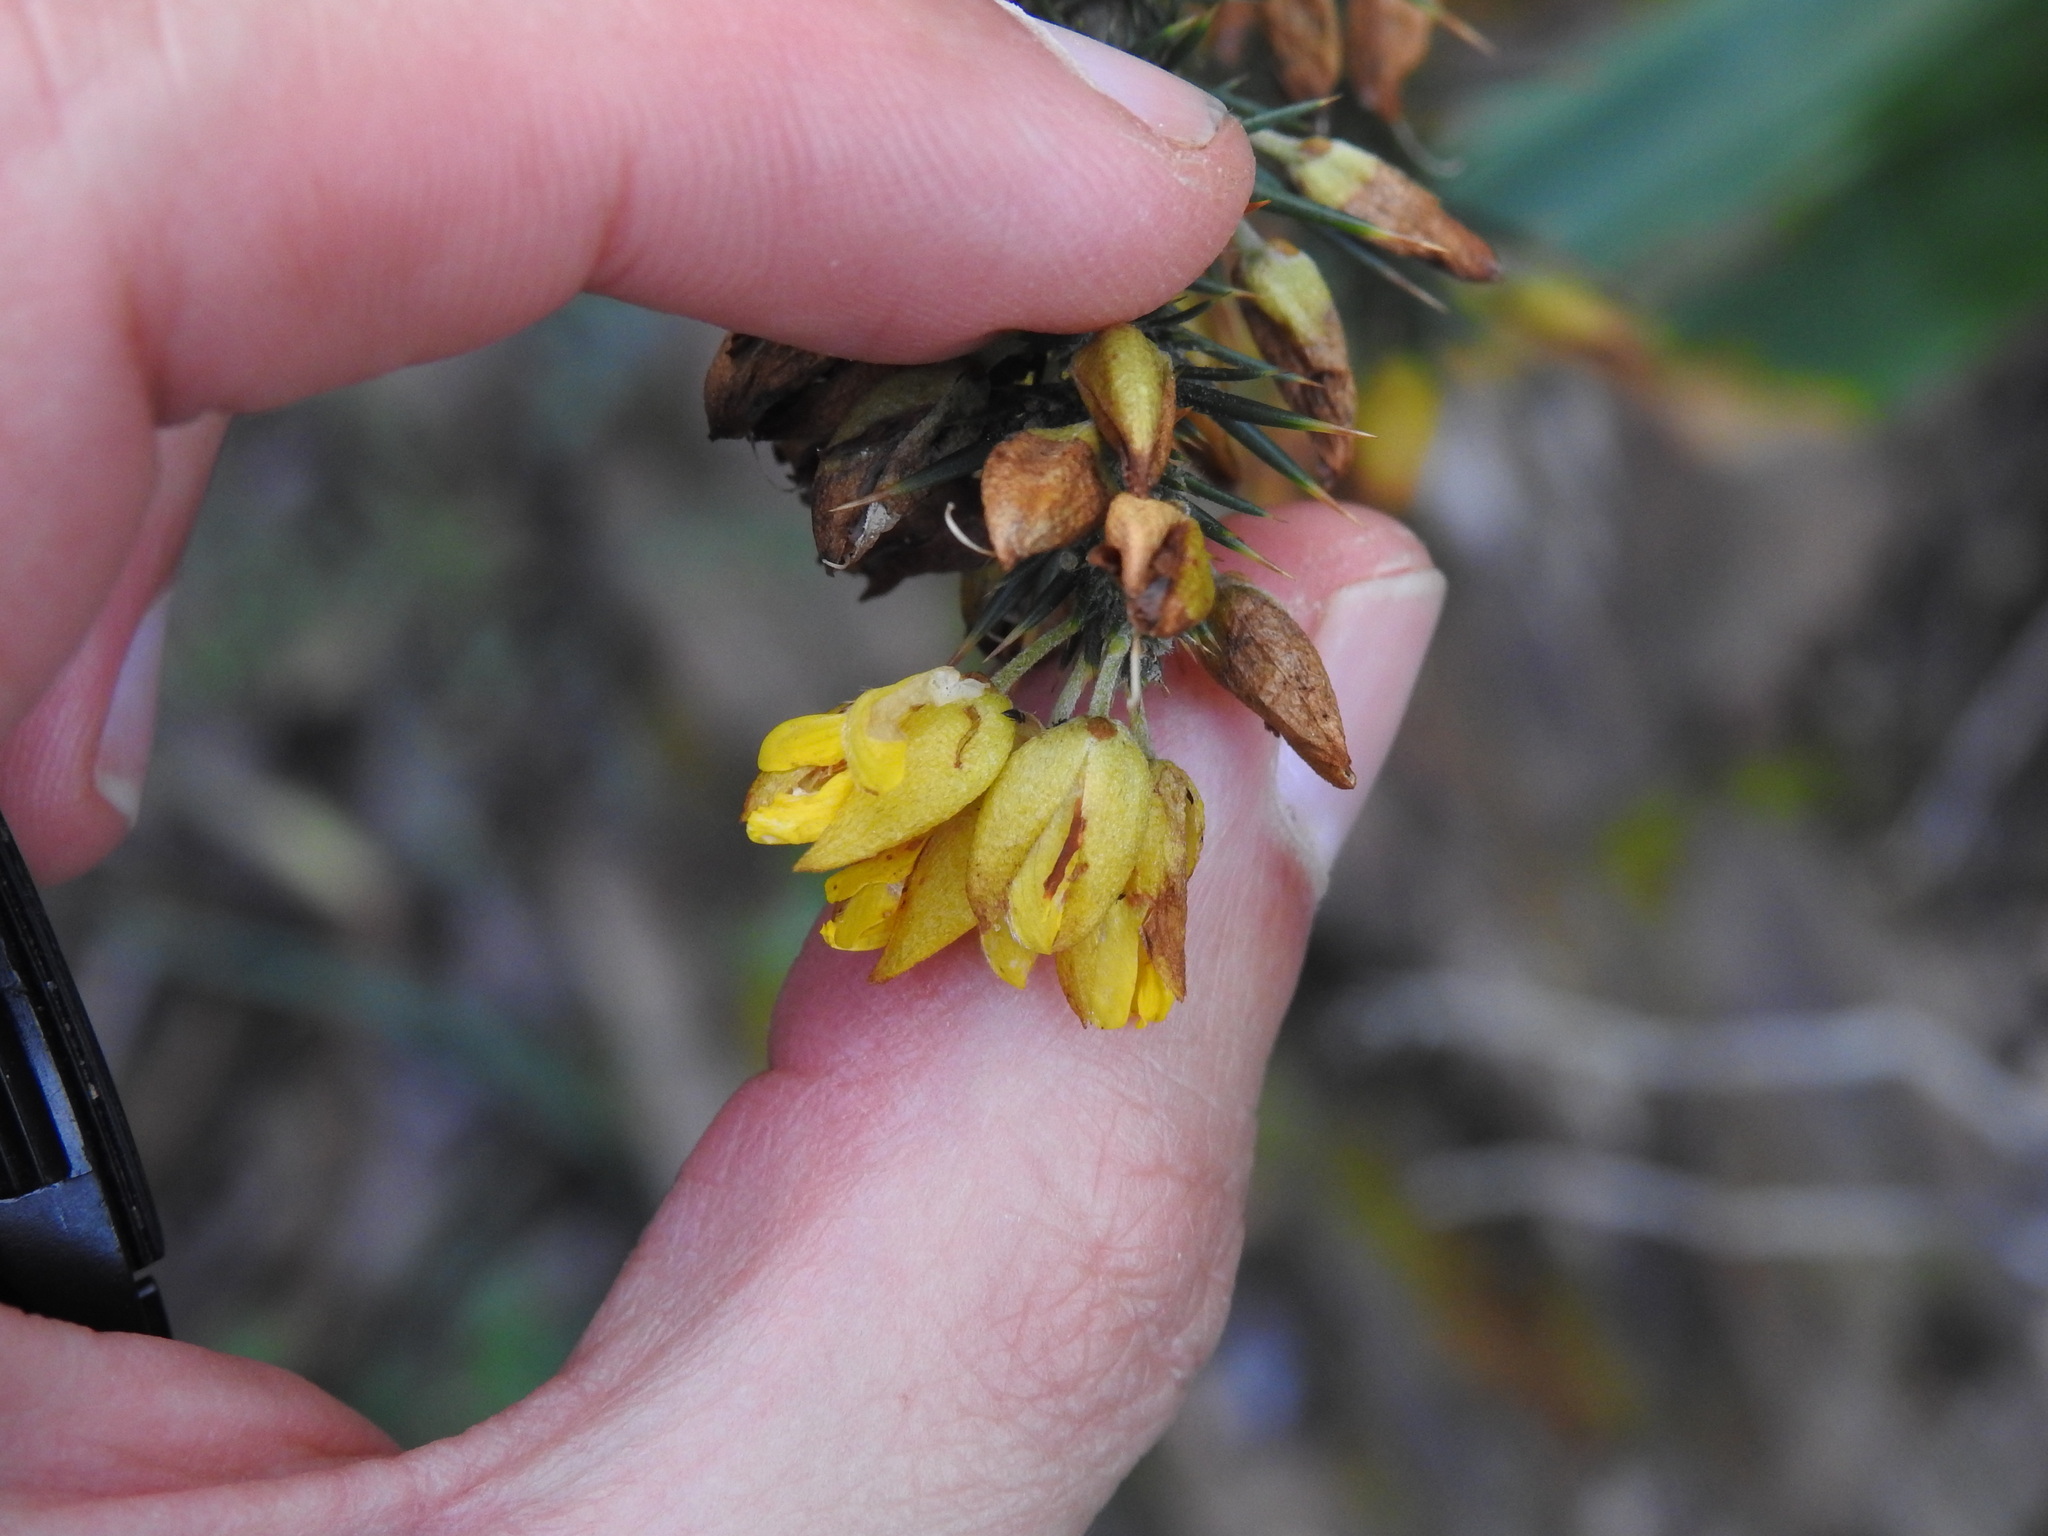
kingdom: Plantae
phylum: Tracheophyta
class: Magnoliopsida
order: Fabales
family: Fabaceae
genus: Ulex
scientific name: Ulex jussiaei
